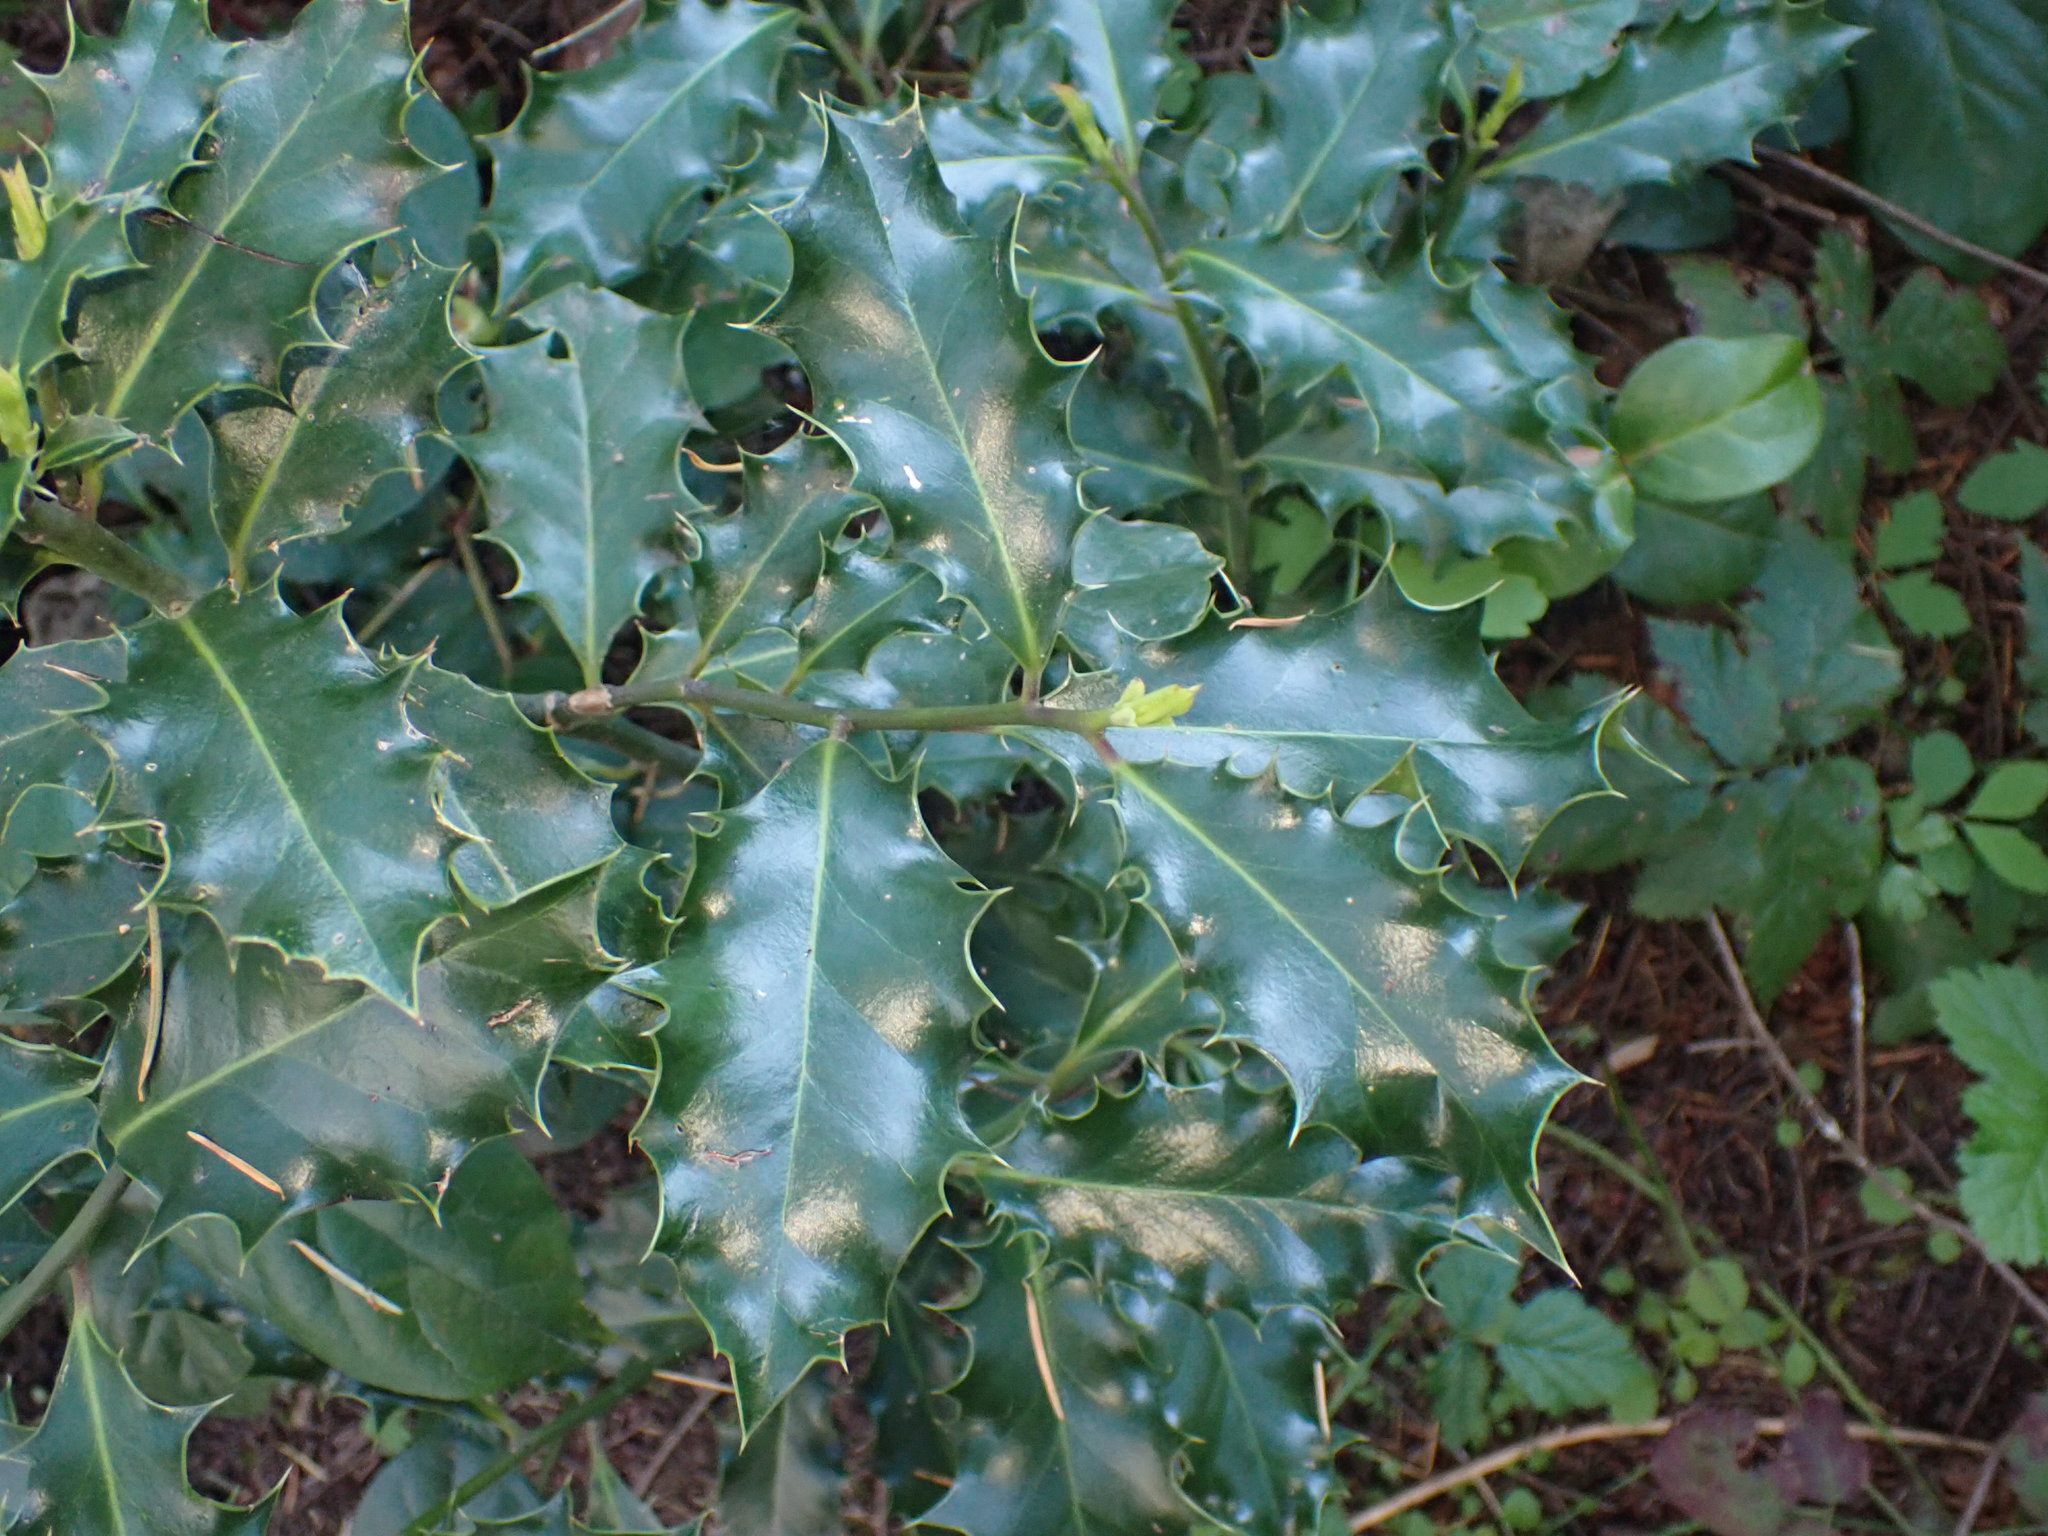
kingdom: Plantae
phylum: Tracheophyta
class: Magnoliopsida
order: Aquifoliales
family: Aquifoliaceae
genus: Ilex
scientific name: Ilex aquifolium
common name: English holly
